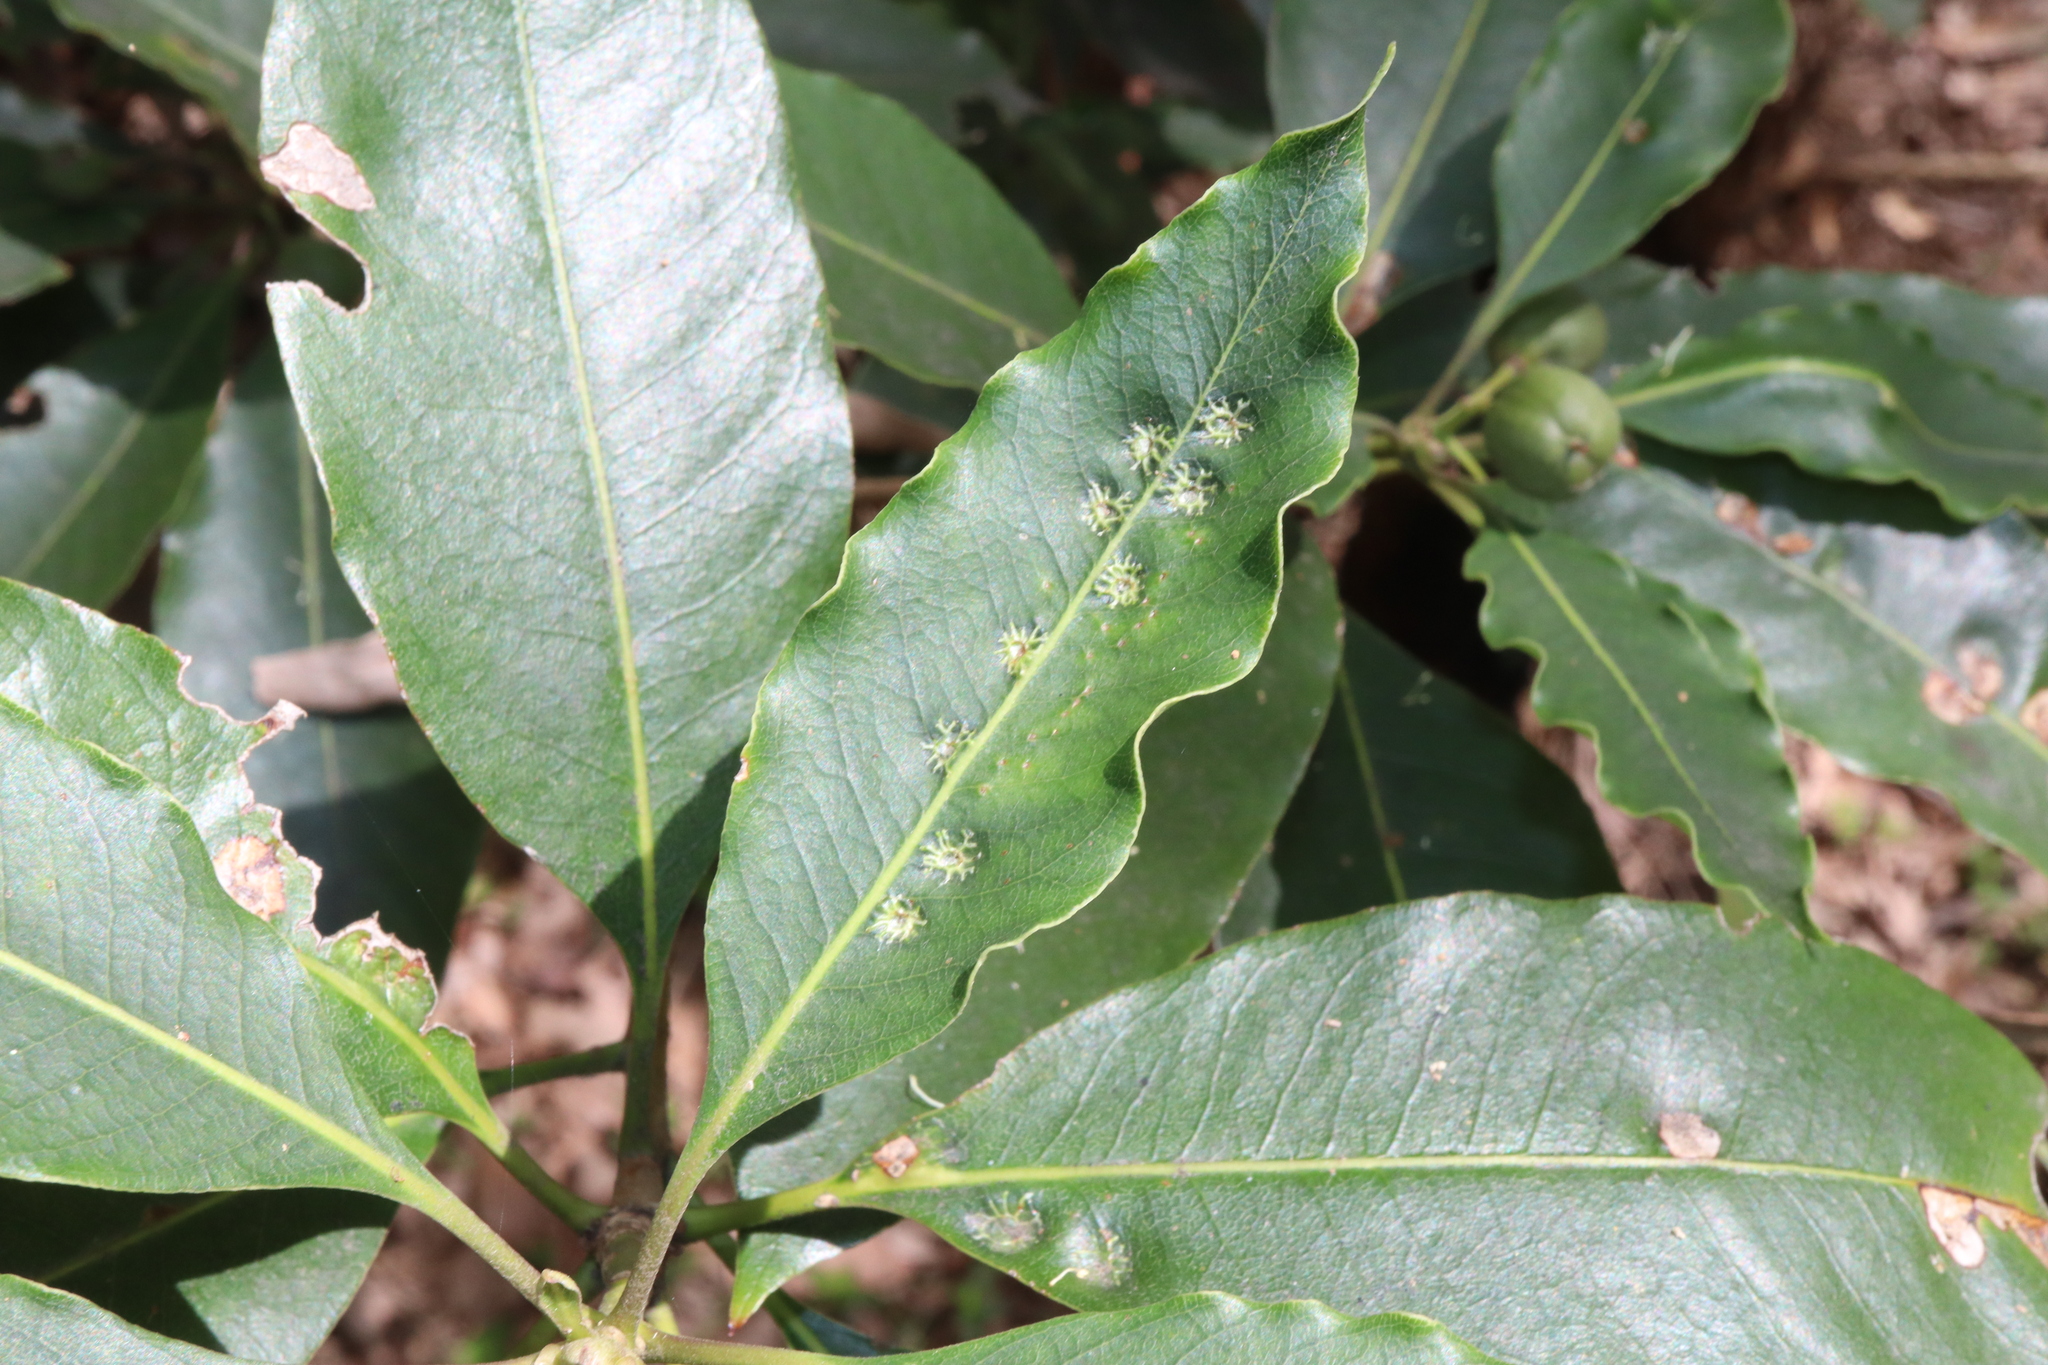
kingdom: Animalia
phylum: Arthropoda
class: Insecta
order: Diptera
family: Agromyzidae
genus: Phytoliriomyza
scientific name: Phytoliriomyza pittosporophylli
